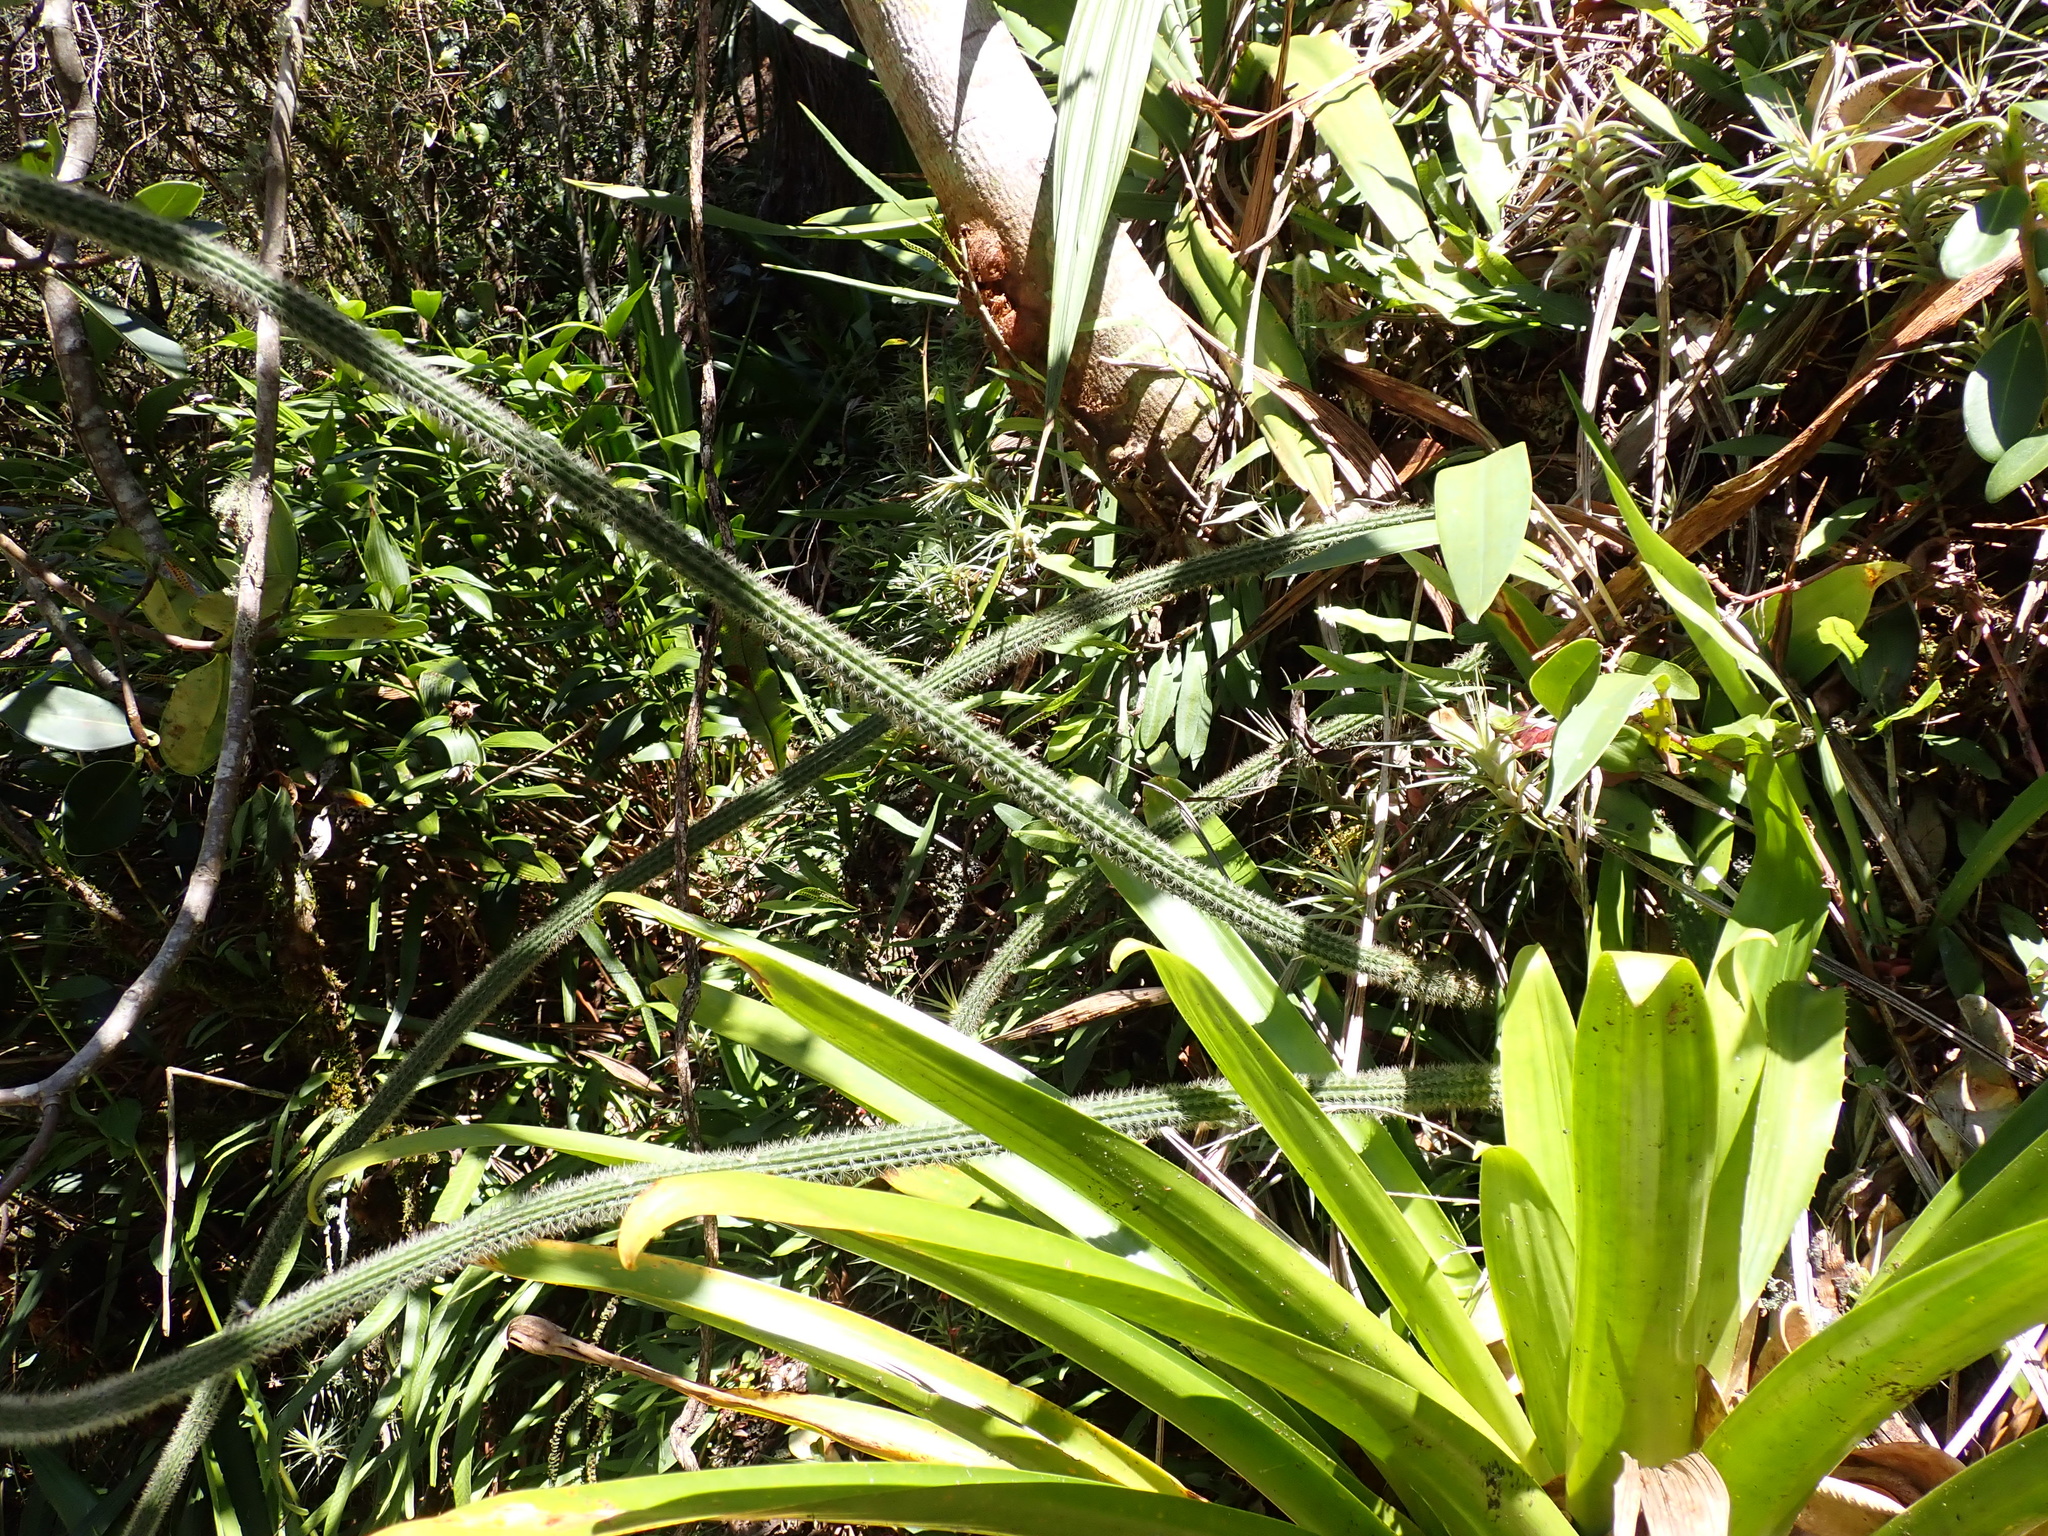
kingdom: Plantae
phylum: Tracheophyta
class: Magnoliopsida
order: Caryophyllales
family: Cactaceae
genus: Corryocactus
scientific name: Corryocactus erectus
